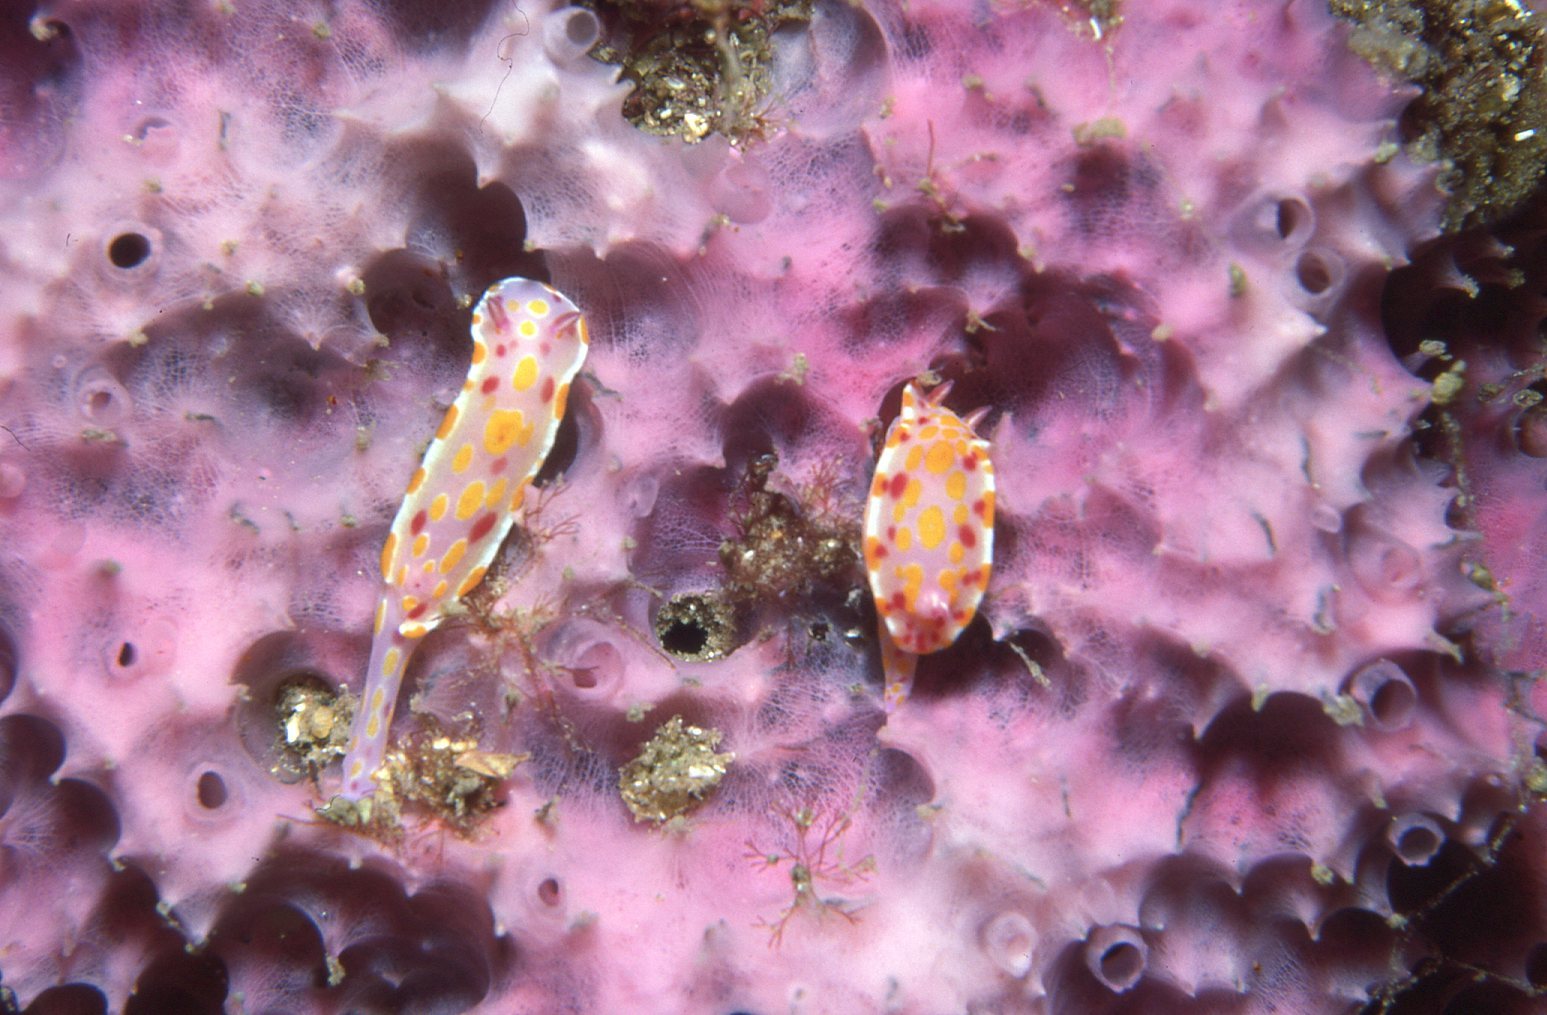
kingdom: Animalia
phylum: Mollusca
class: Gastropoda
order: Nudibranchia
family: Chromodorididae
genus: Ceratosoma
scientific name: Ceratosoma amoenum
